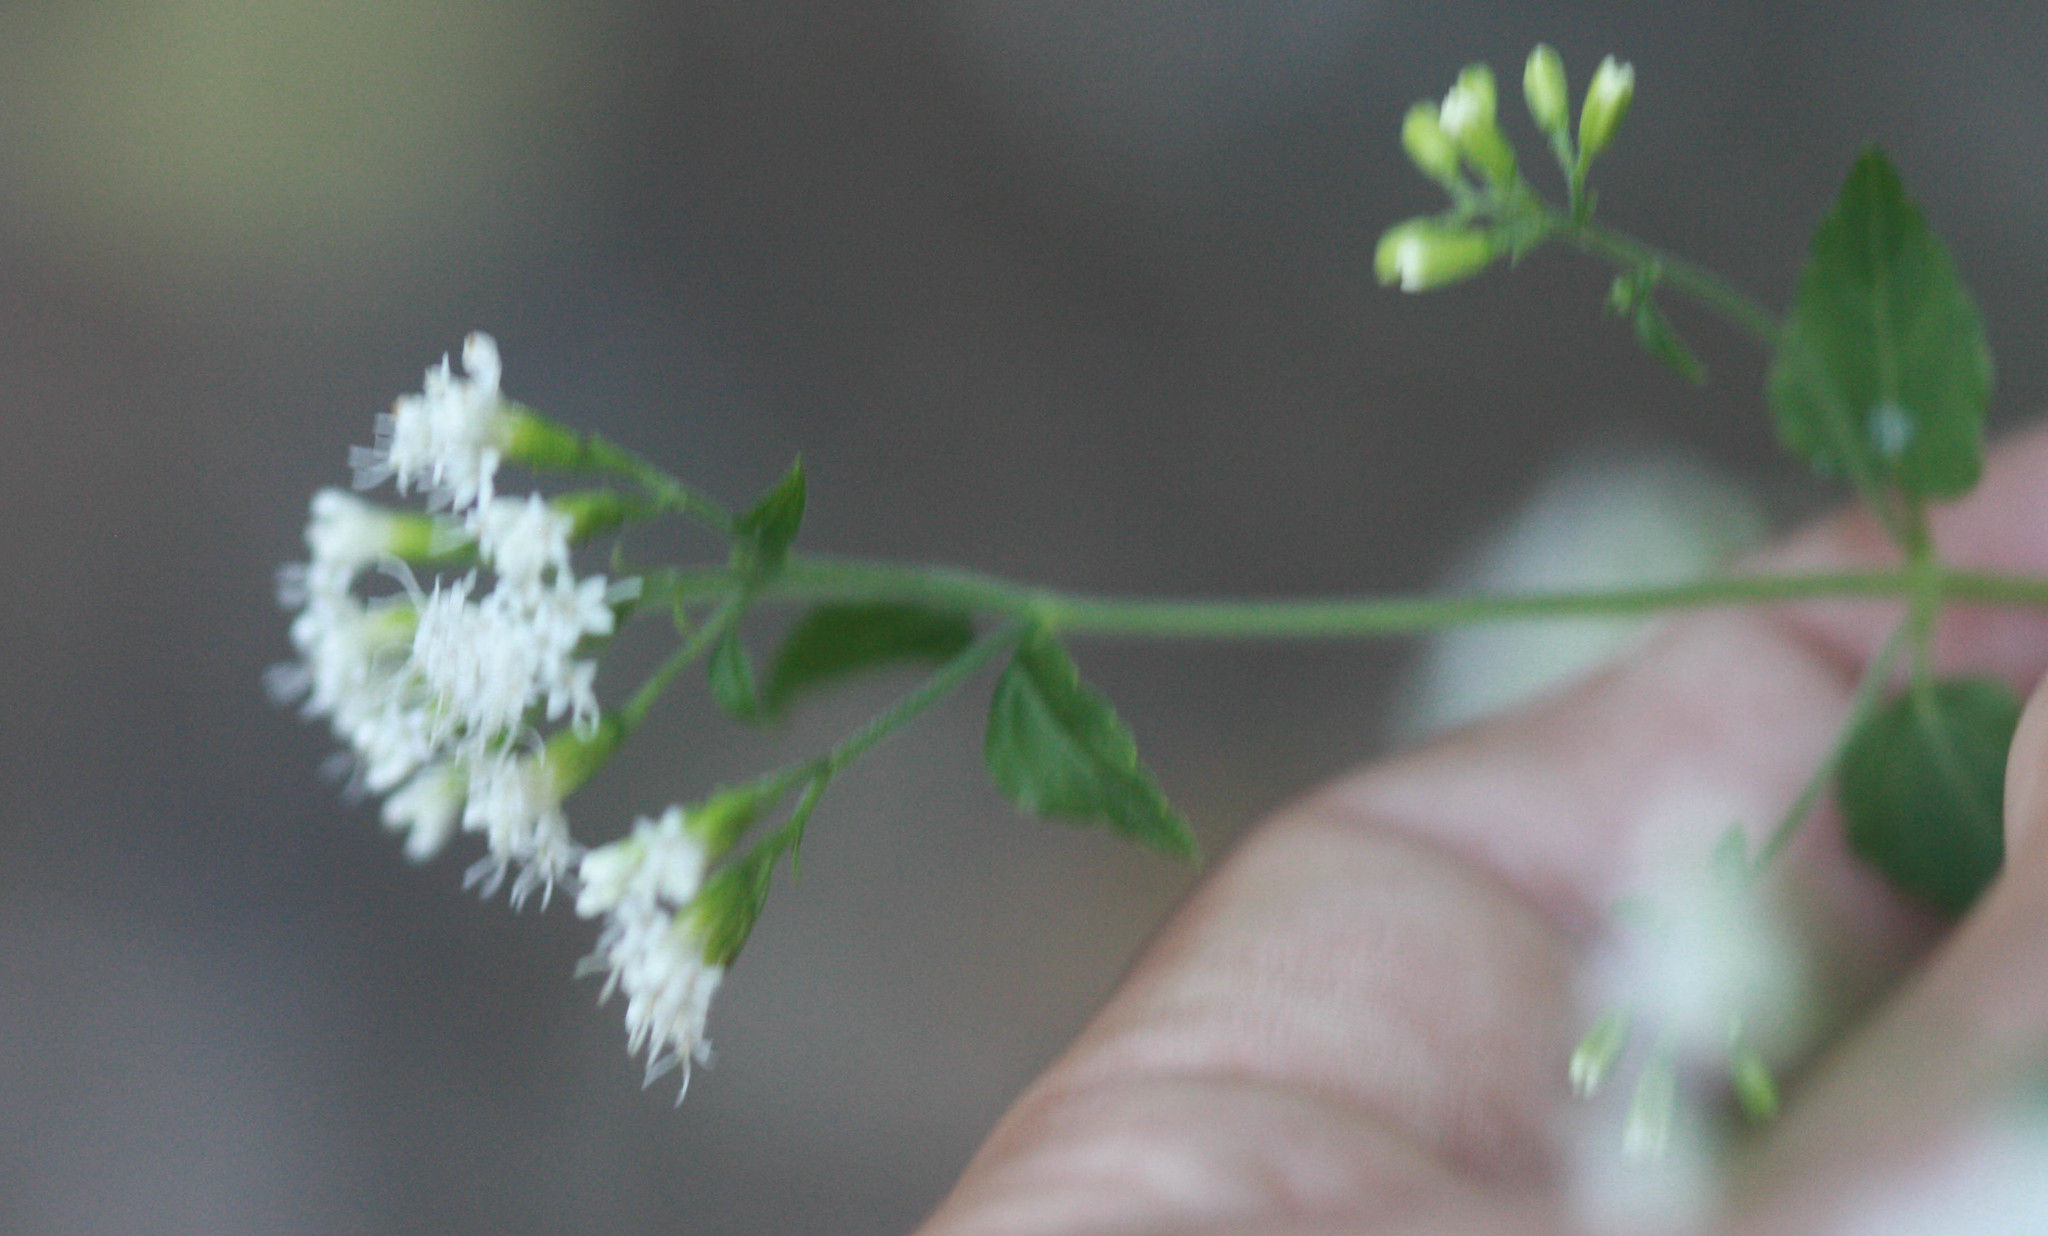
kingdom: Plantae
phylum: Tracheophyta
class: Magnoliopsida
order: Asterales
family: Asteraceae
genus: Ageratina
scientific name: Ageratina havanensis
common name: Havana snakeroot
